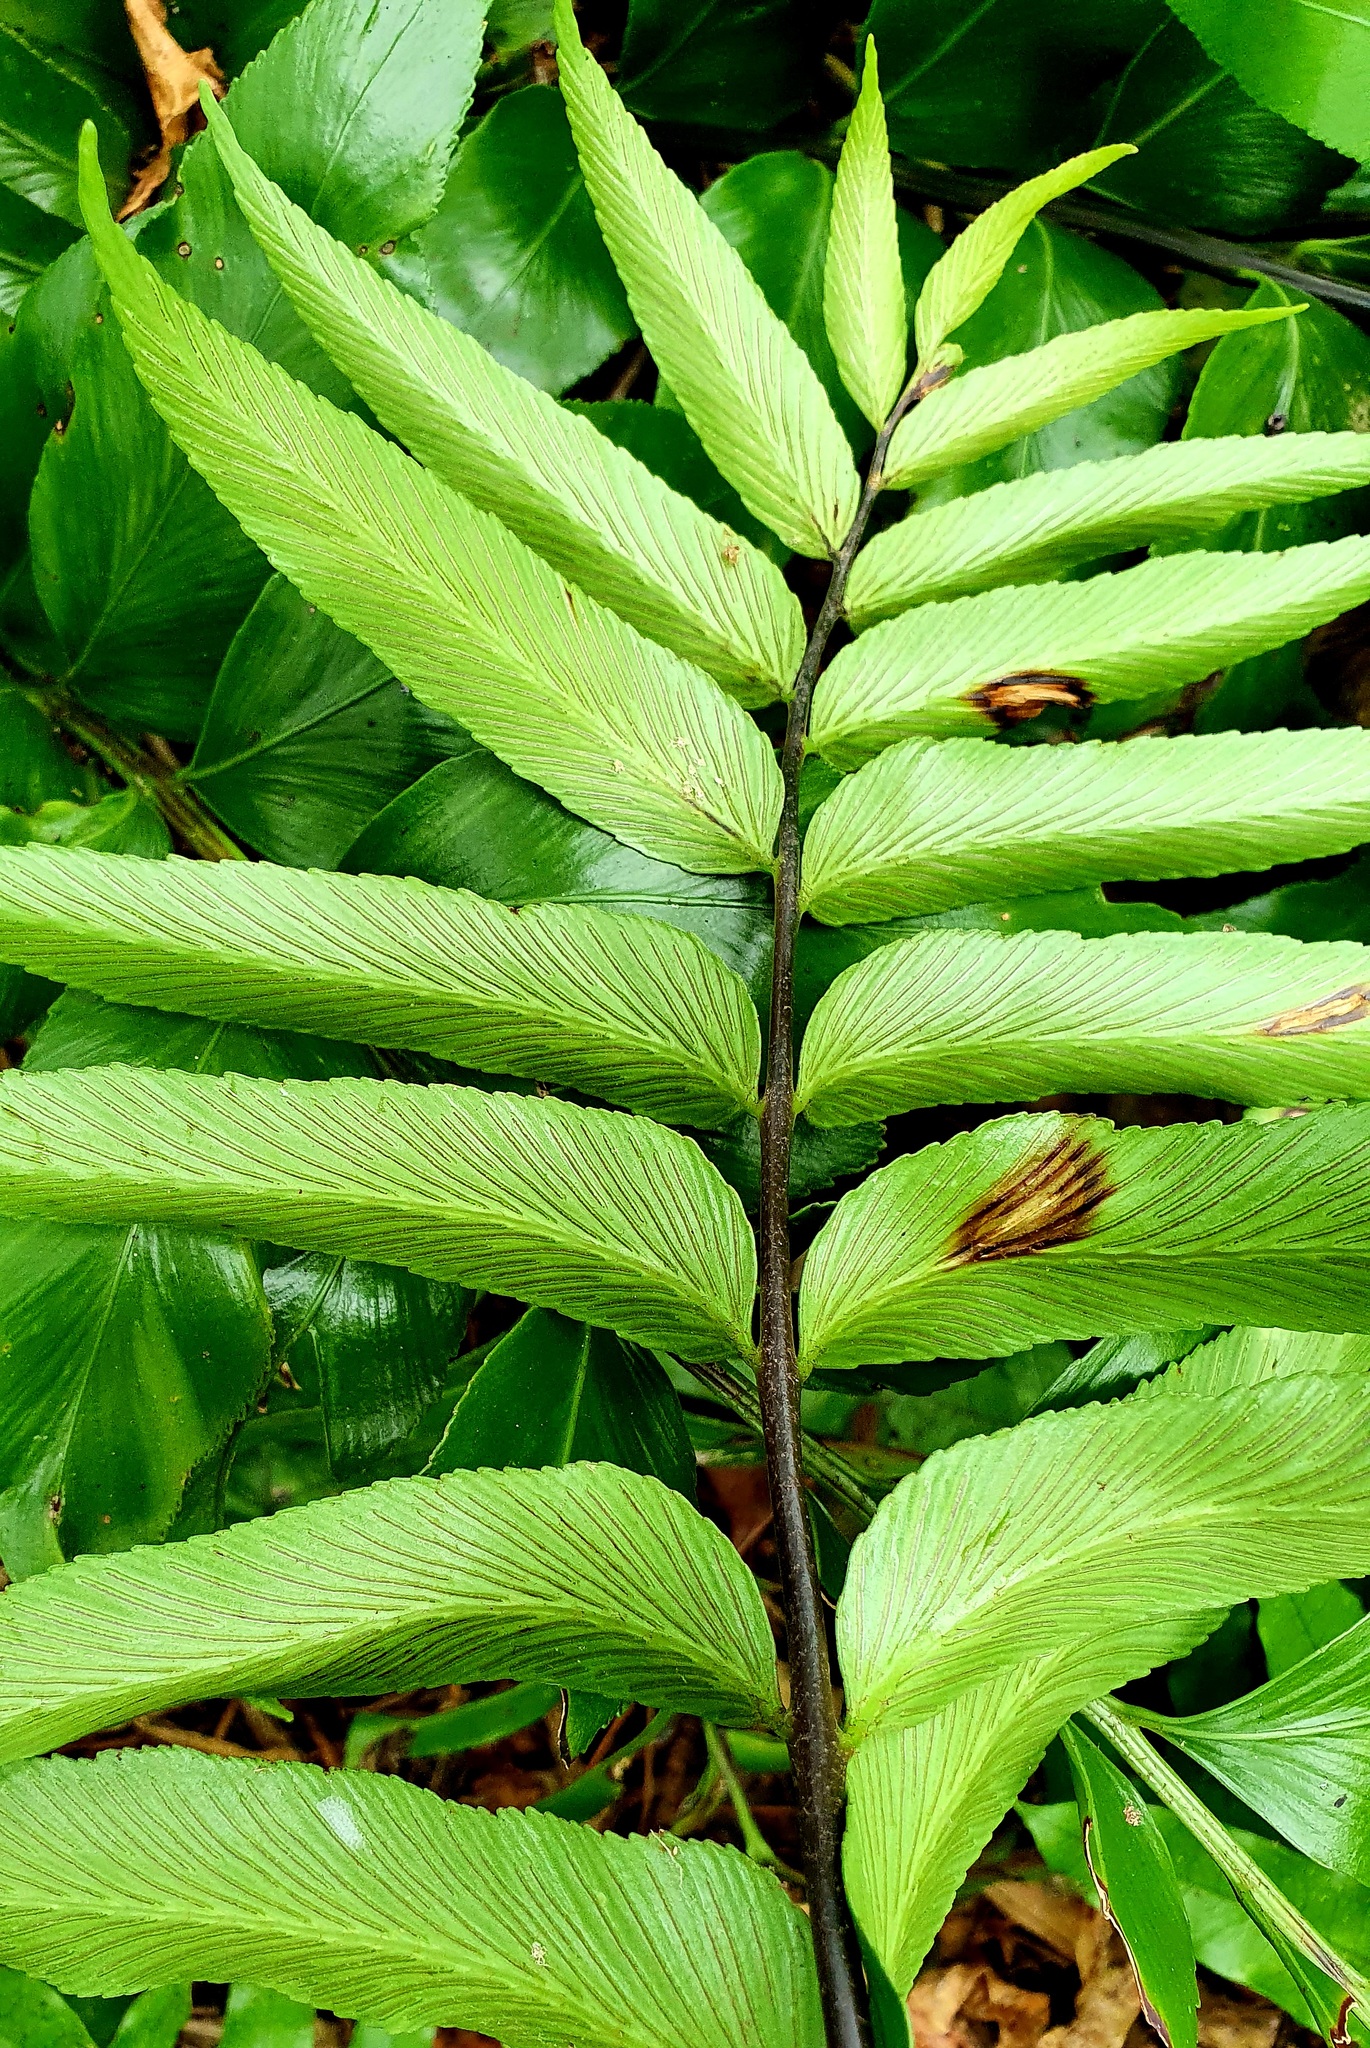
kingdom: Plantae
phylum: Tracheophyta
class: Polypodiopsida
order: Polypodiales
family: Aspleniaceae
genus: Asplenium
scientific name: Asplenium oblongifolium
